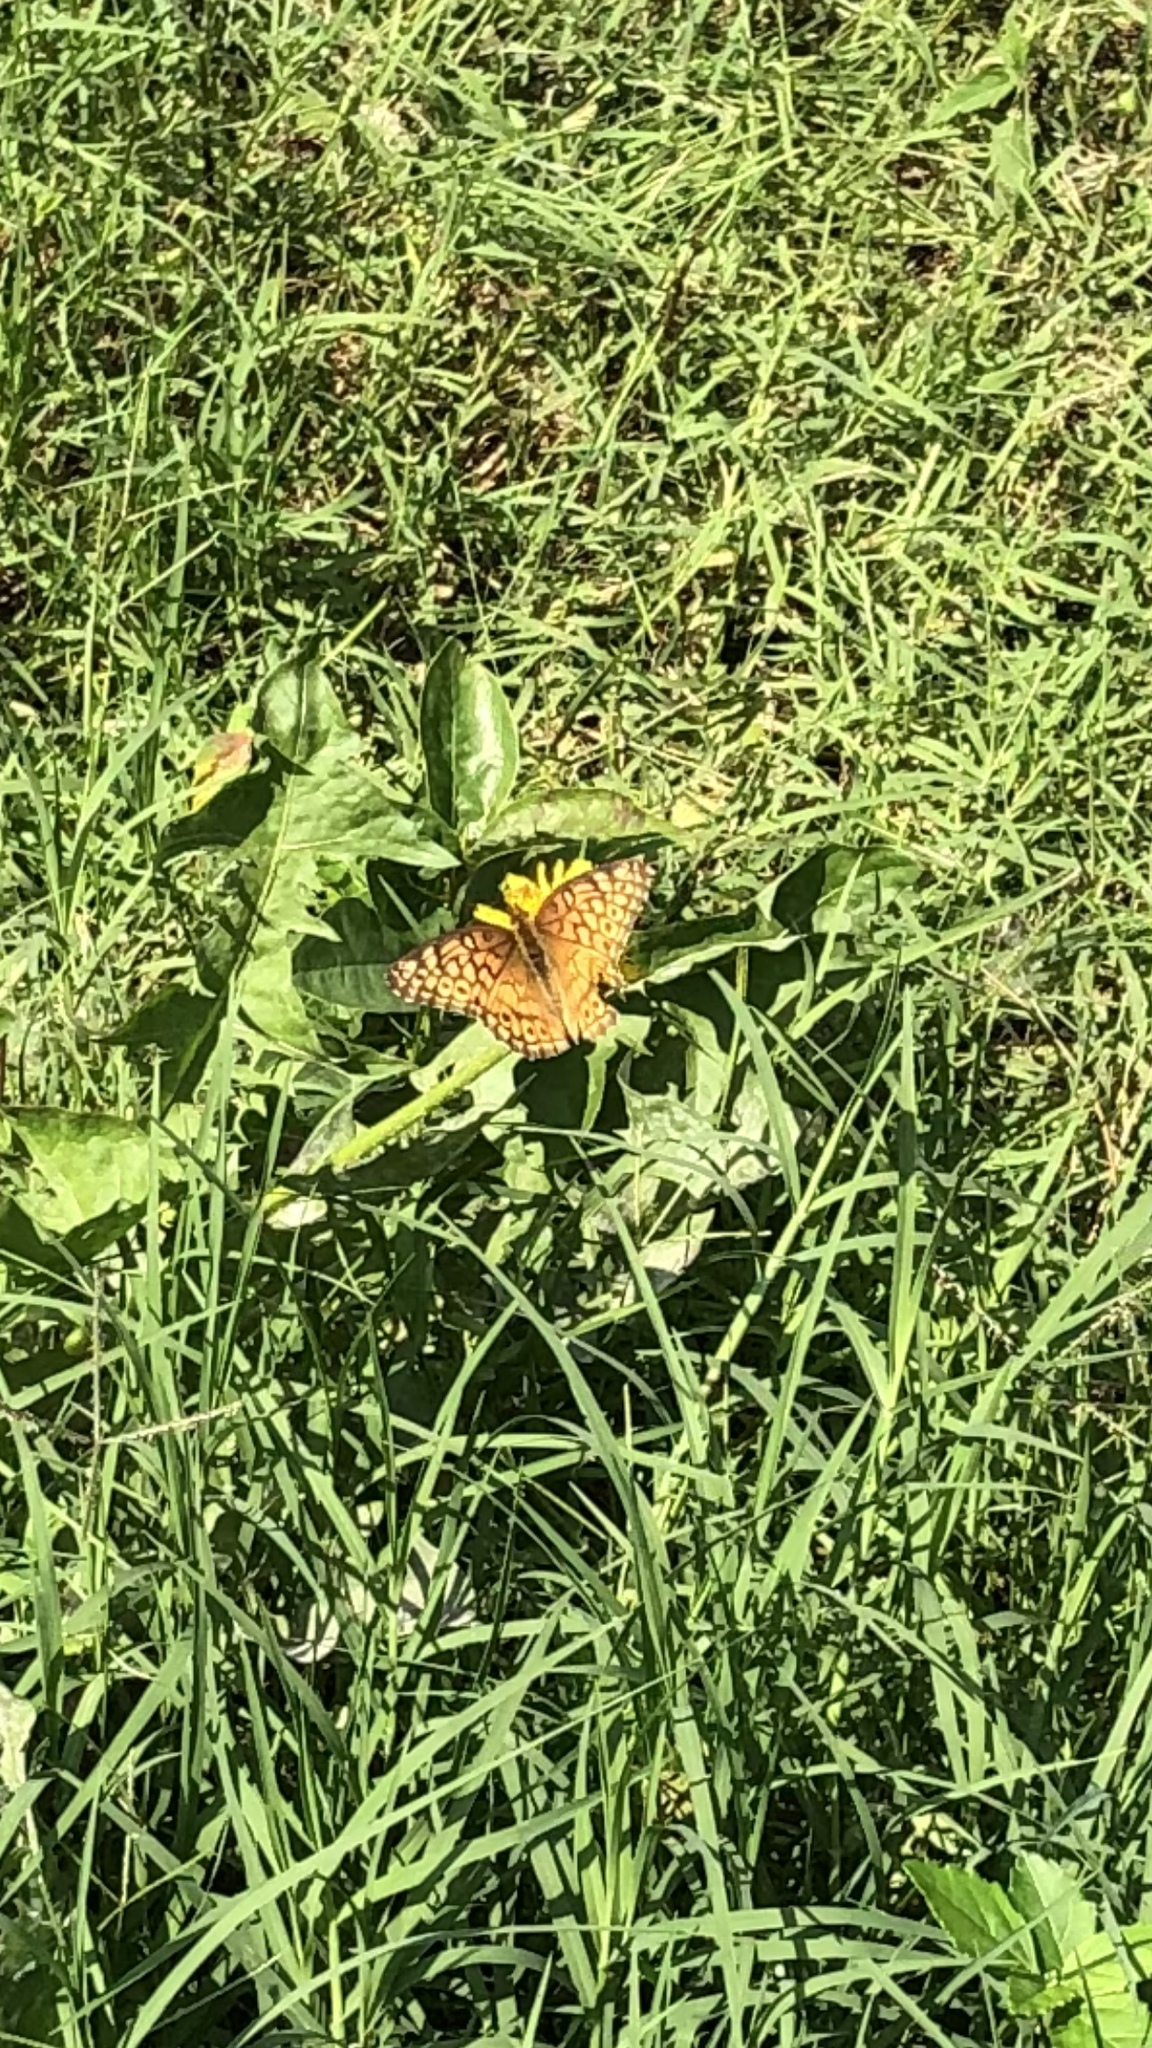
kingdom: Animalia
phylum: Arthropoda
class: Insecta
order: Lepidoptera
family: Nymphalidae
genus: Euptoieta
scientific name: Euptoieta claudia
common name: Variegated fritillary
